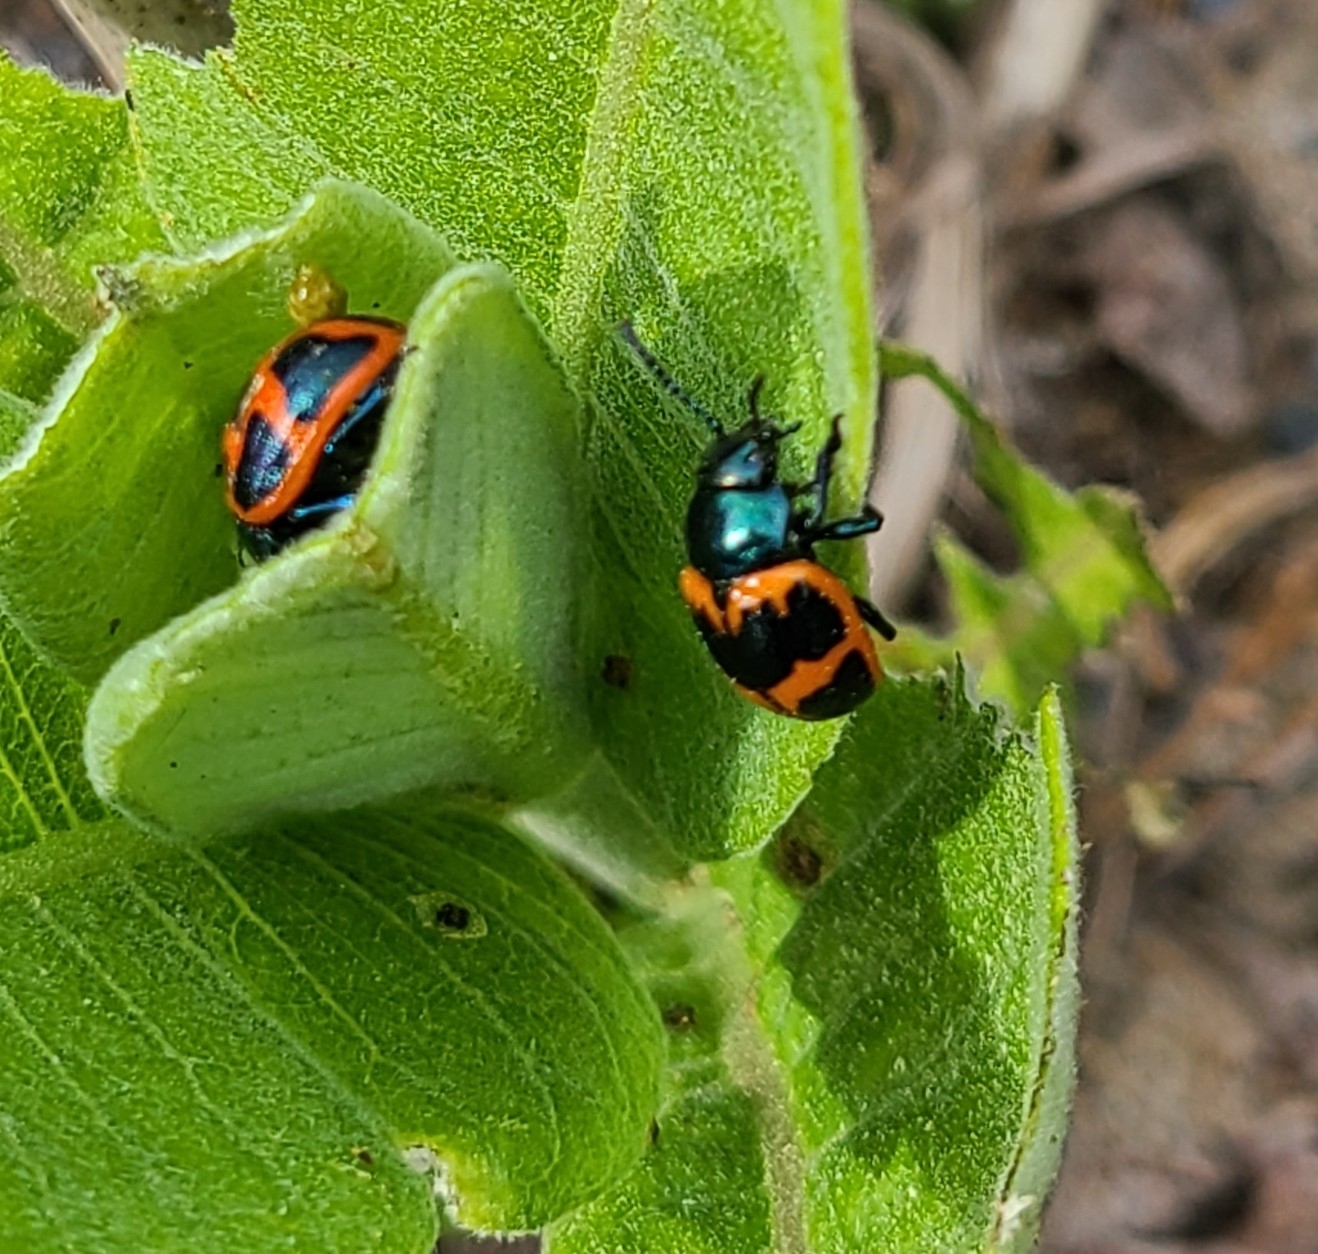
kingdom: Animalia
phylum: Arthropoda
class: Insecta
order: Coleoptera
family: Chrysomelidae
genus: Labidomera
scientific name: Labidomera clivicollis
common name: Swamp milkweed leaf beetle
